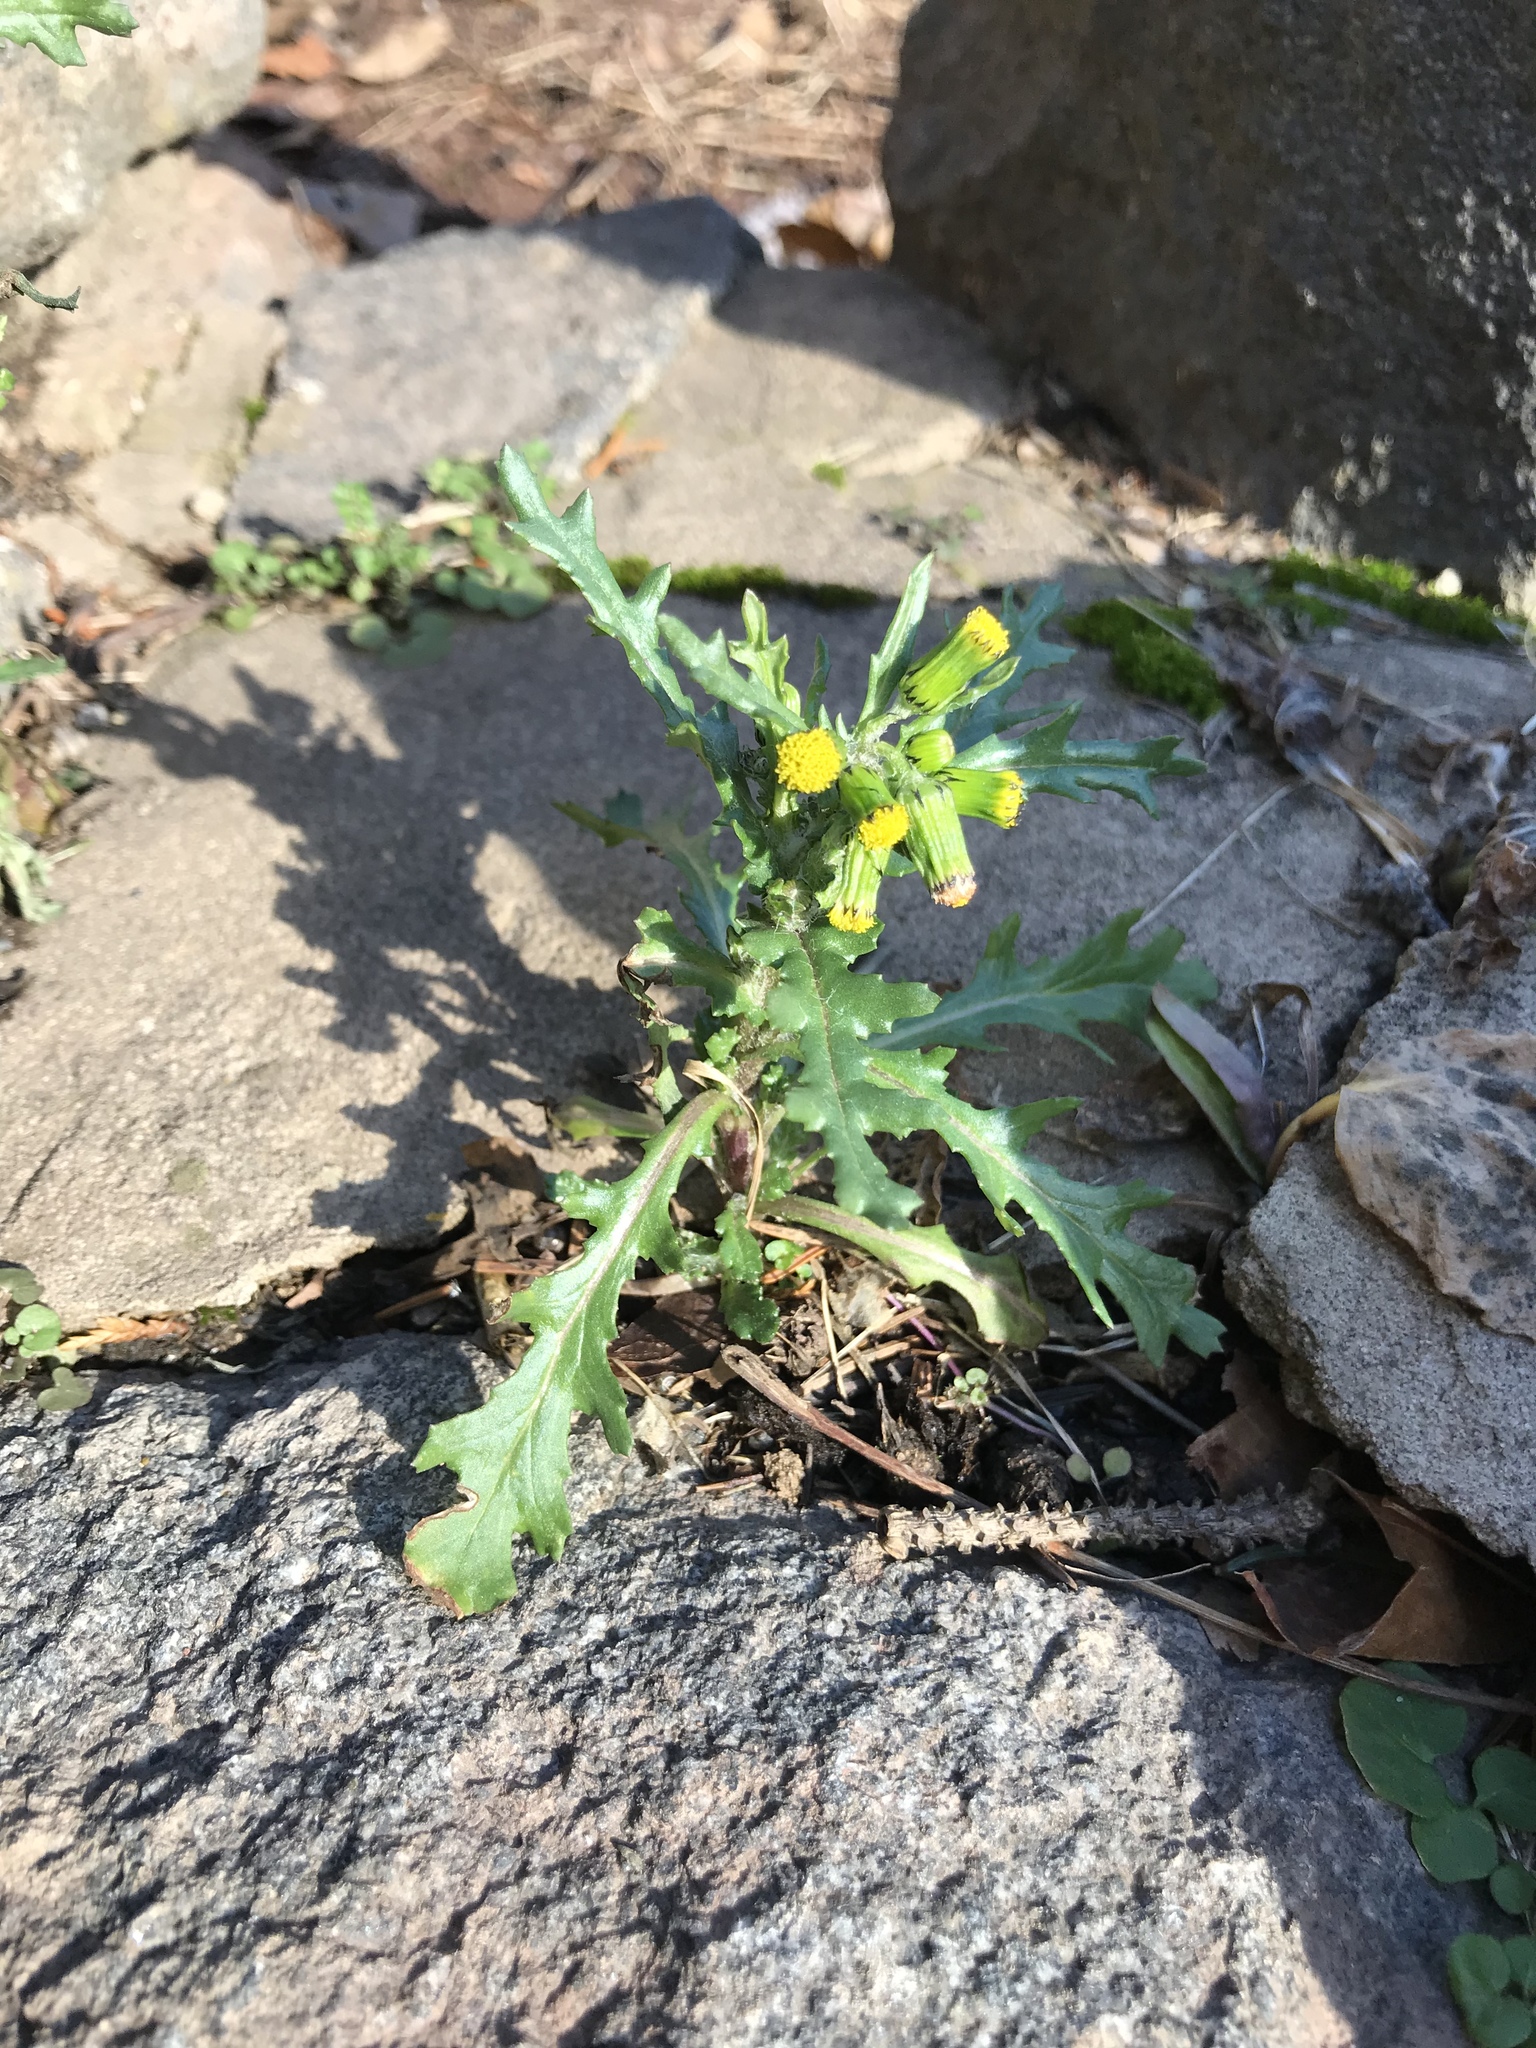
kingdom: Plantae
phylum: Tracheophyta
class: Magnoliopsida
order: Asterales
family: Asteraceae
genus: Senecio
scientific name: Senecio vulgaris
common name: Old-man-in-the-spring
